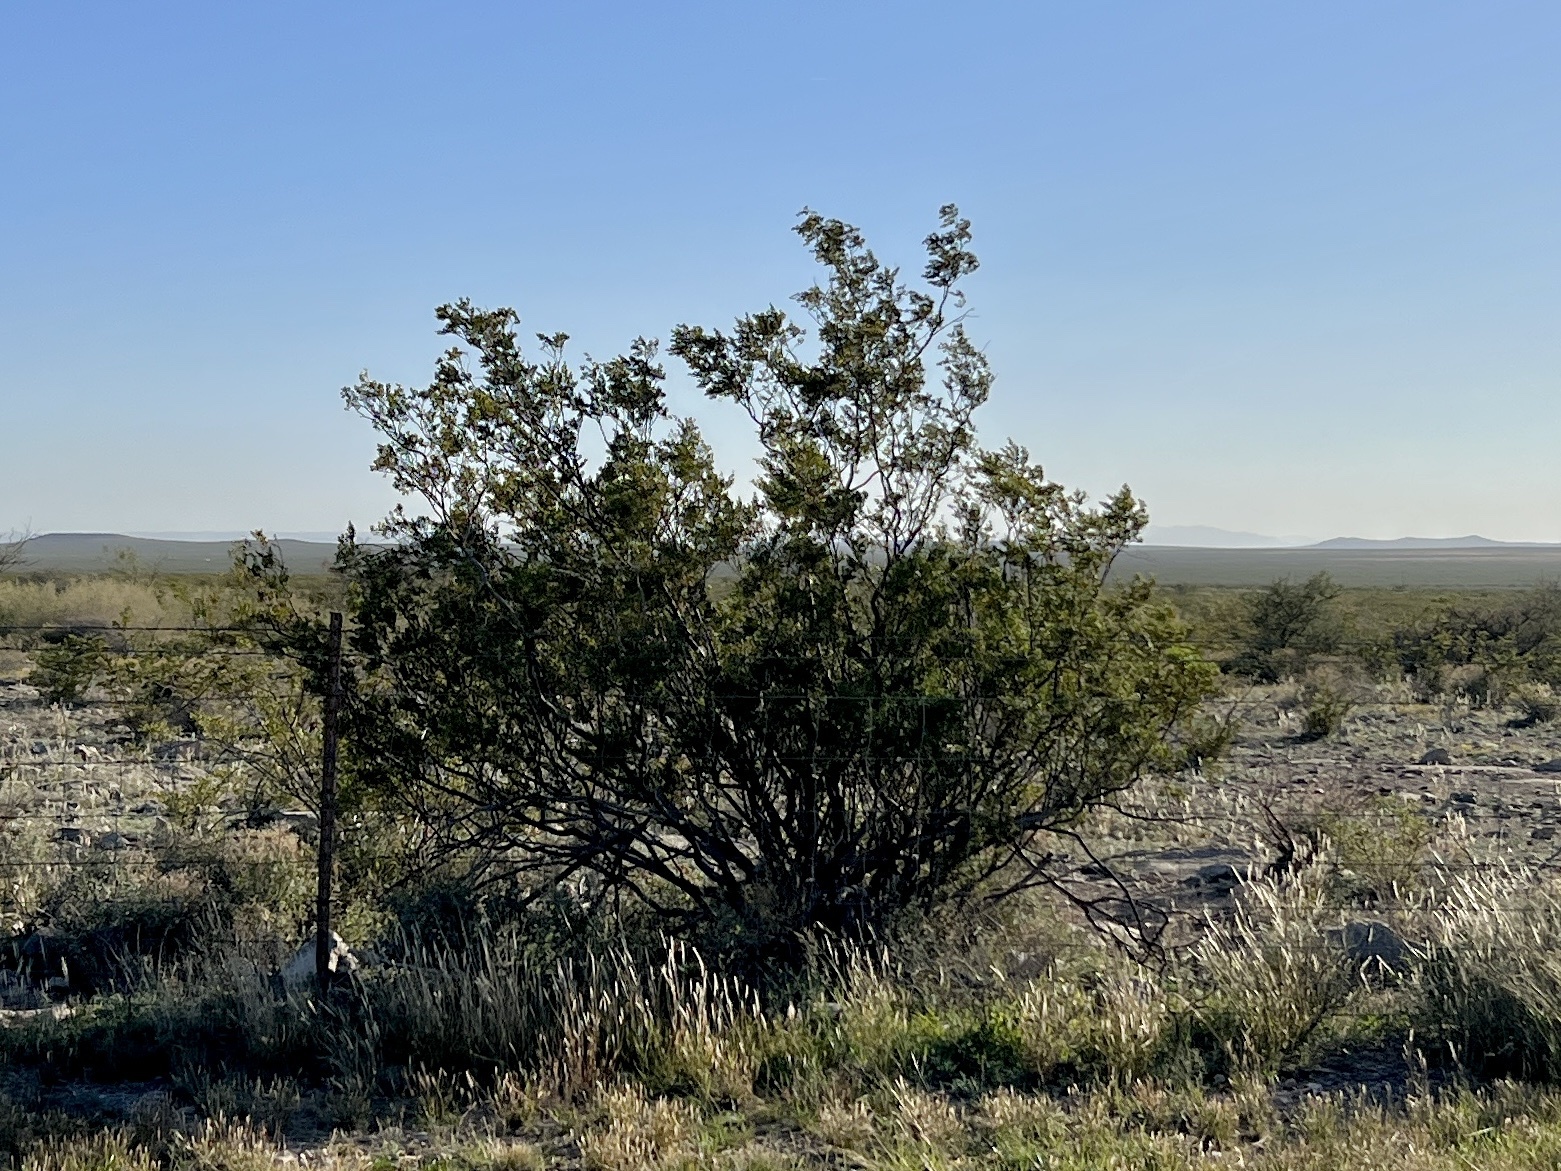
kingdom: Plantae
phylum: Tracheophyta
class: Magnoliopsida
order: Zygophyllales
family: Zygophyllaceae
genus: Larrea
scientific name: Larrea tridentata
